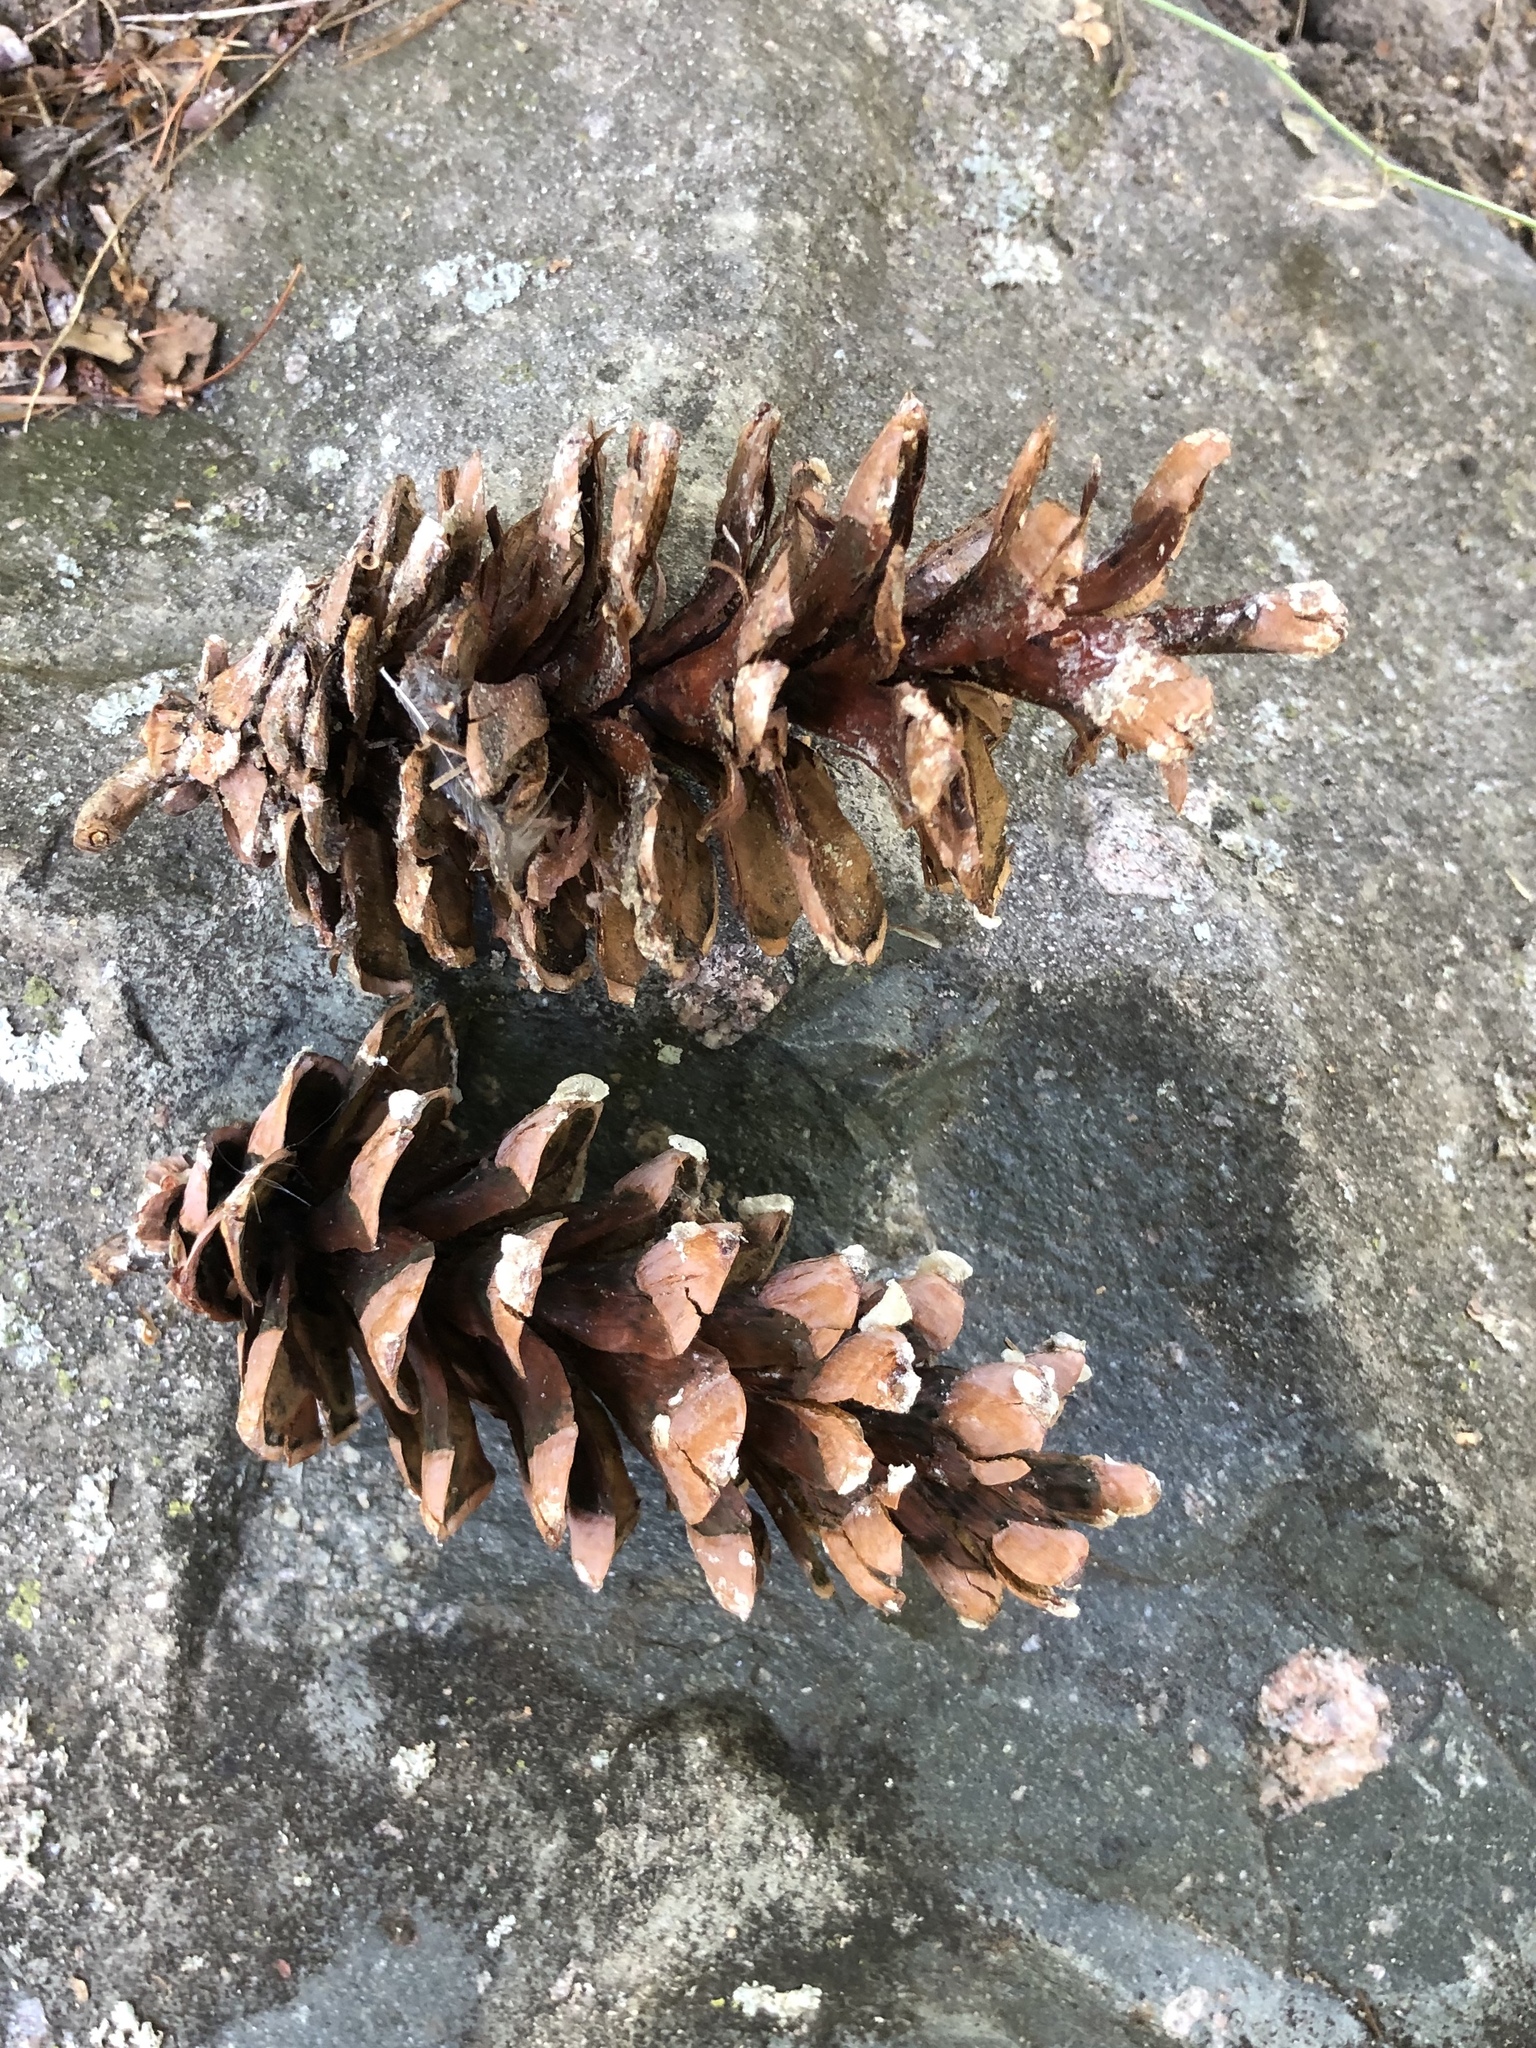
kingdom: Plantae
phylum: Tracheophyta
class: Pinopsida
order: Pinales
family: Pinaceae
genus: Pinus
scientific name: Pinus strobus
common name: Weymouth pine
